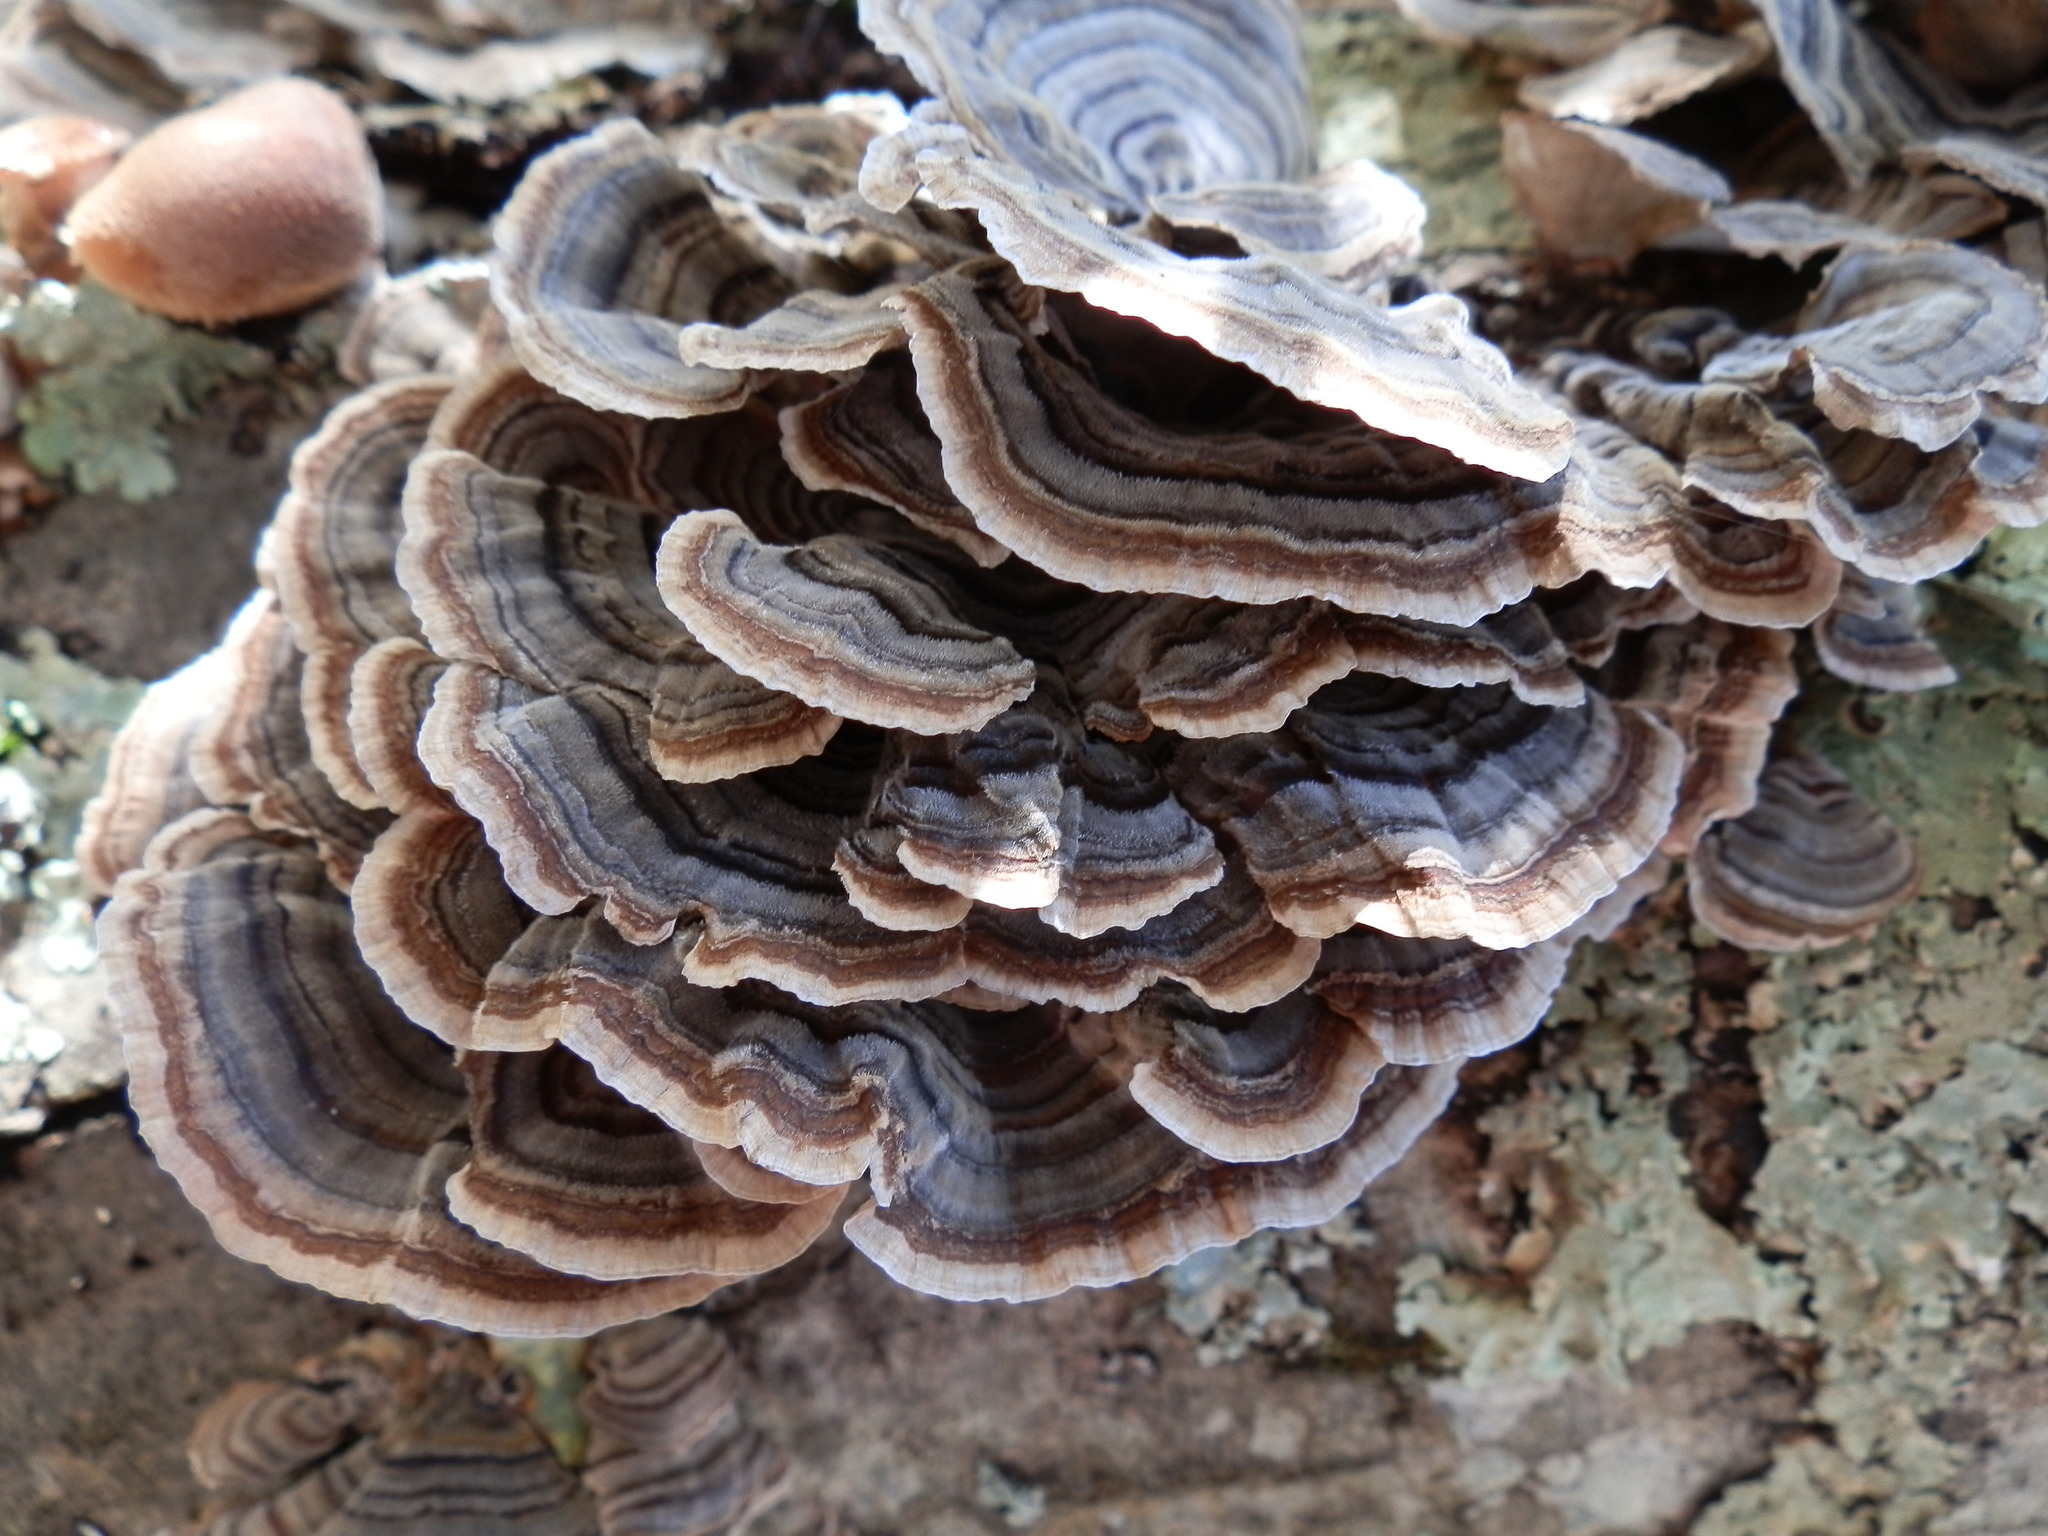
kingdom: Fungi
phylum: Basidiomycota
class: Agaricomycetes
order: Polyporales
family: Polyporaceae
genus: Trametes
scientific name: Trametes versicolor
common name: Turkeytail
